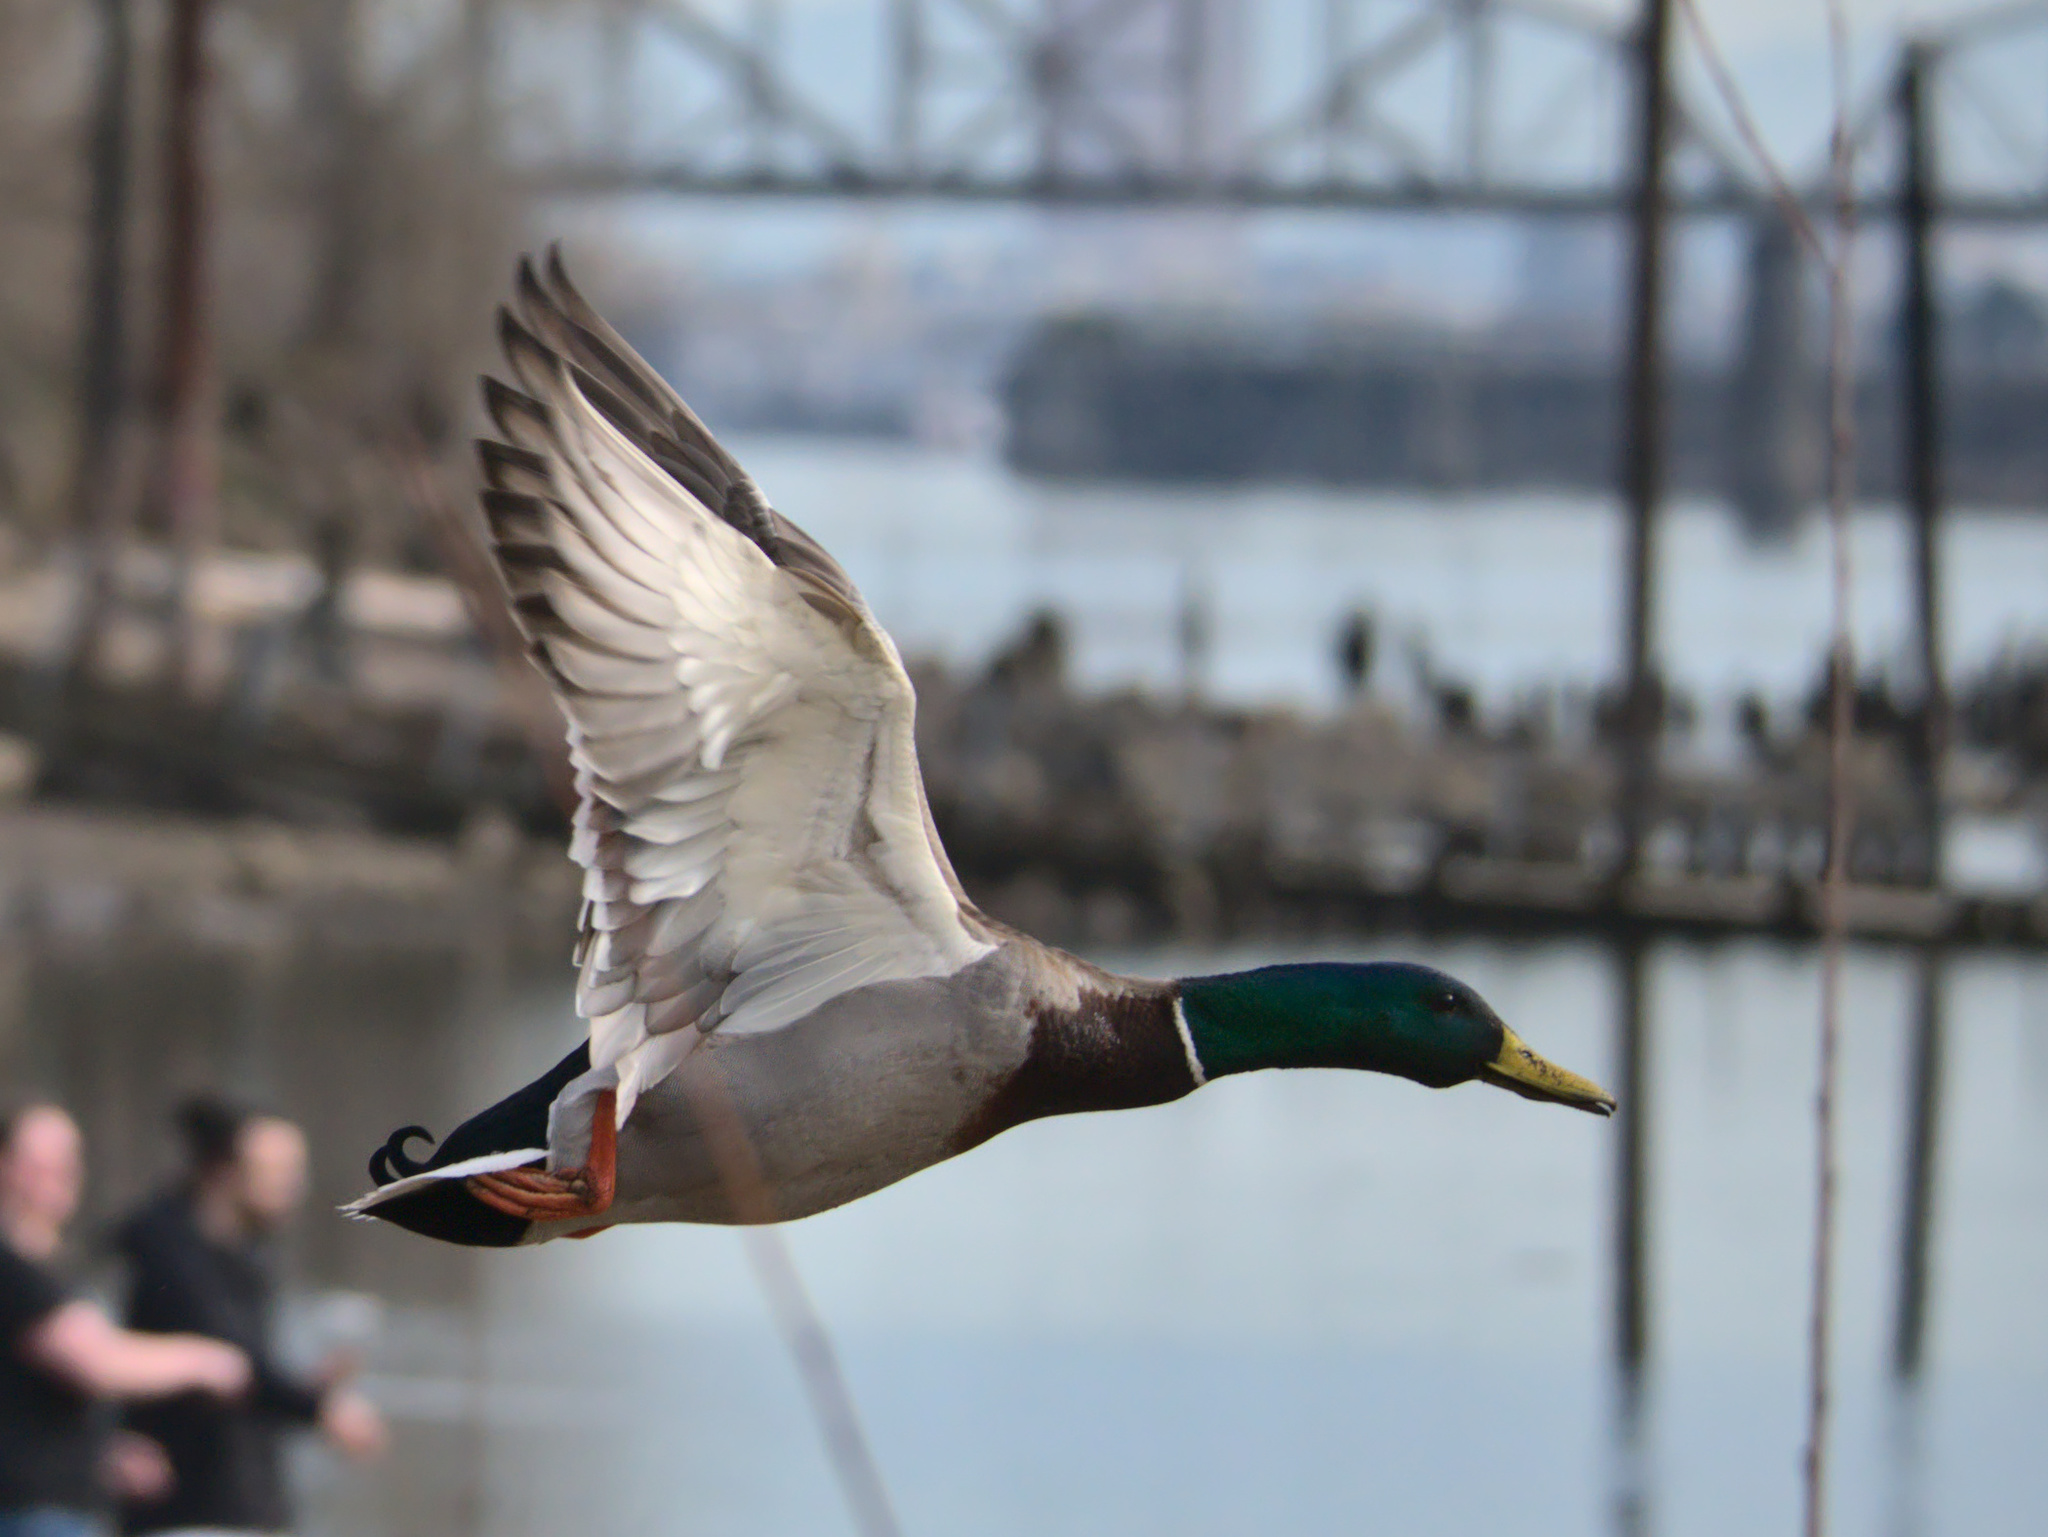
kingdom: Animalia
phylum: Chordata
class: Aves
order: Anseriformes
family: Anatidae
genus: Anas
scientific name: Anas platyrhynchos
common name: Mallard
